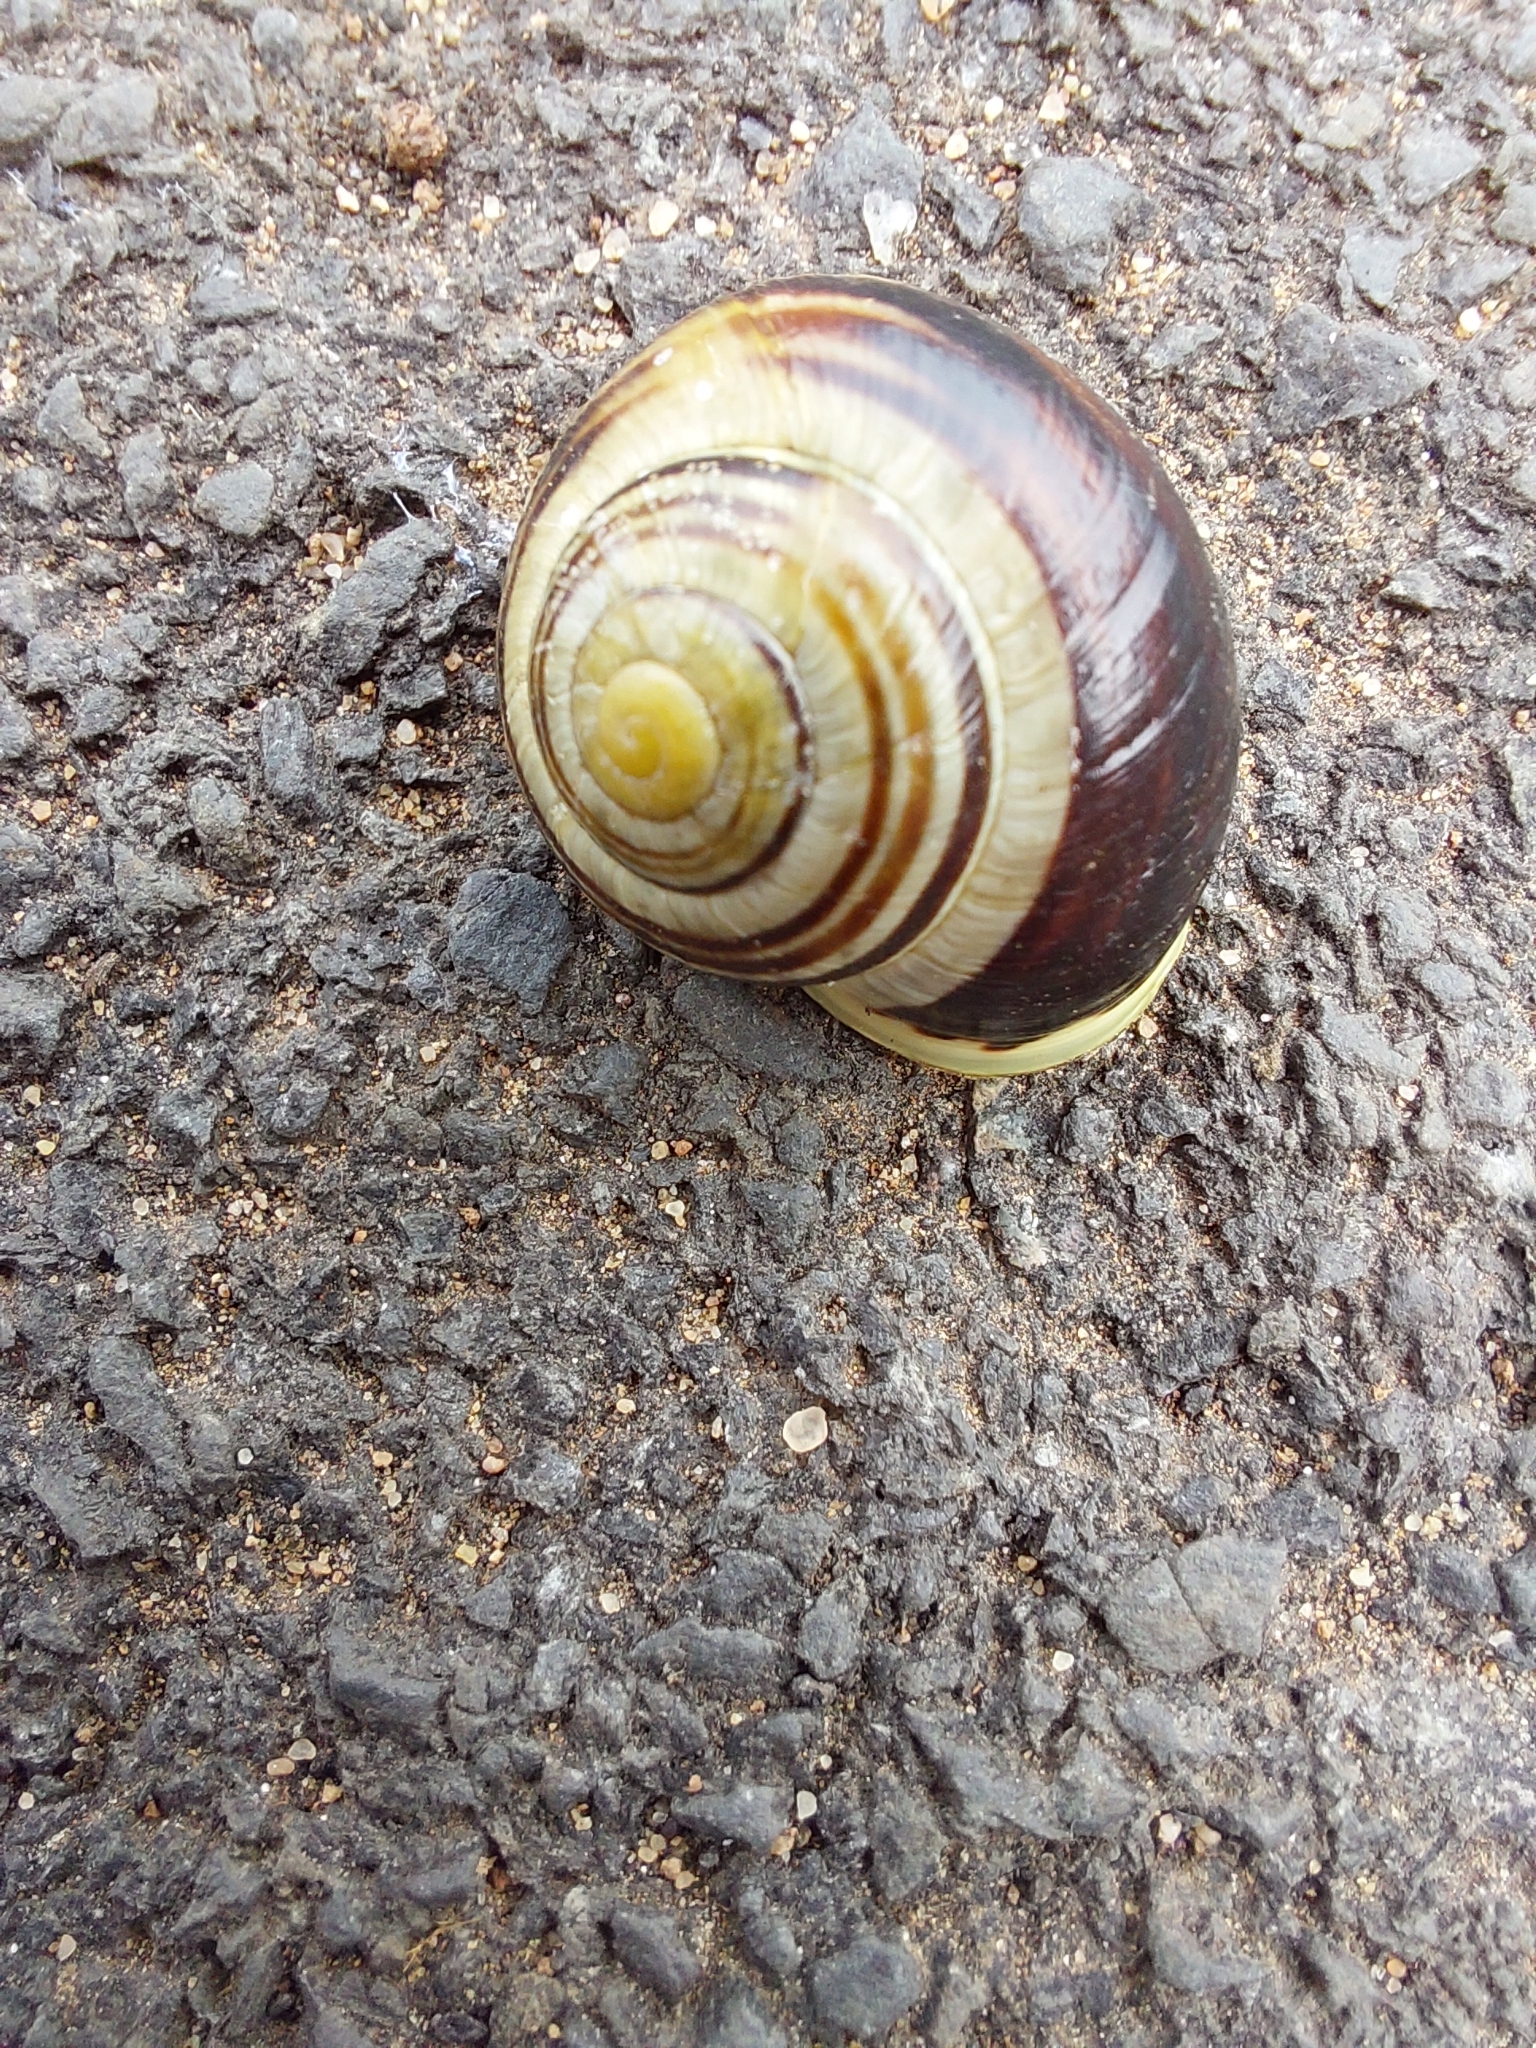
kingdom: Animalia
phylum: Mollusca
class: Gastropoda
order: Stylommatophora
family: Helicidae
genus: Cepaea
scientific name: Cepaea hortensis
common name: White-lip gardensnail
